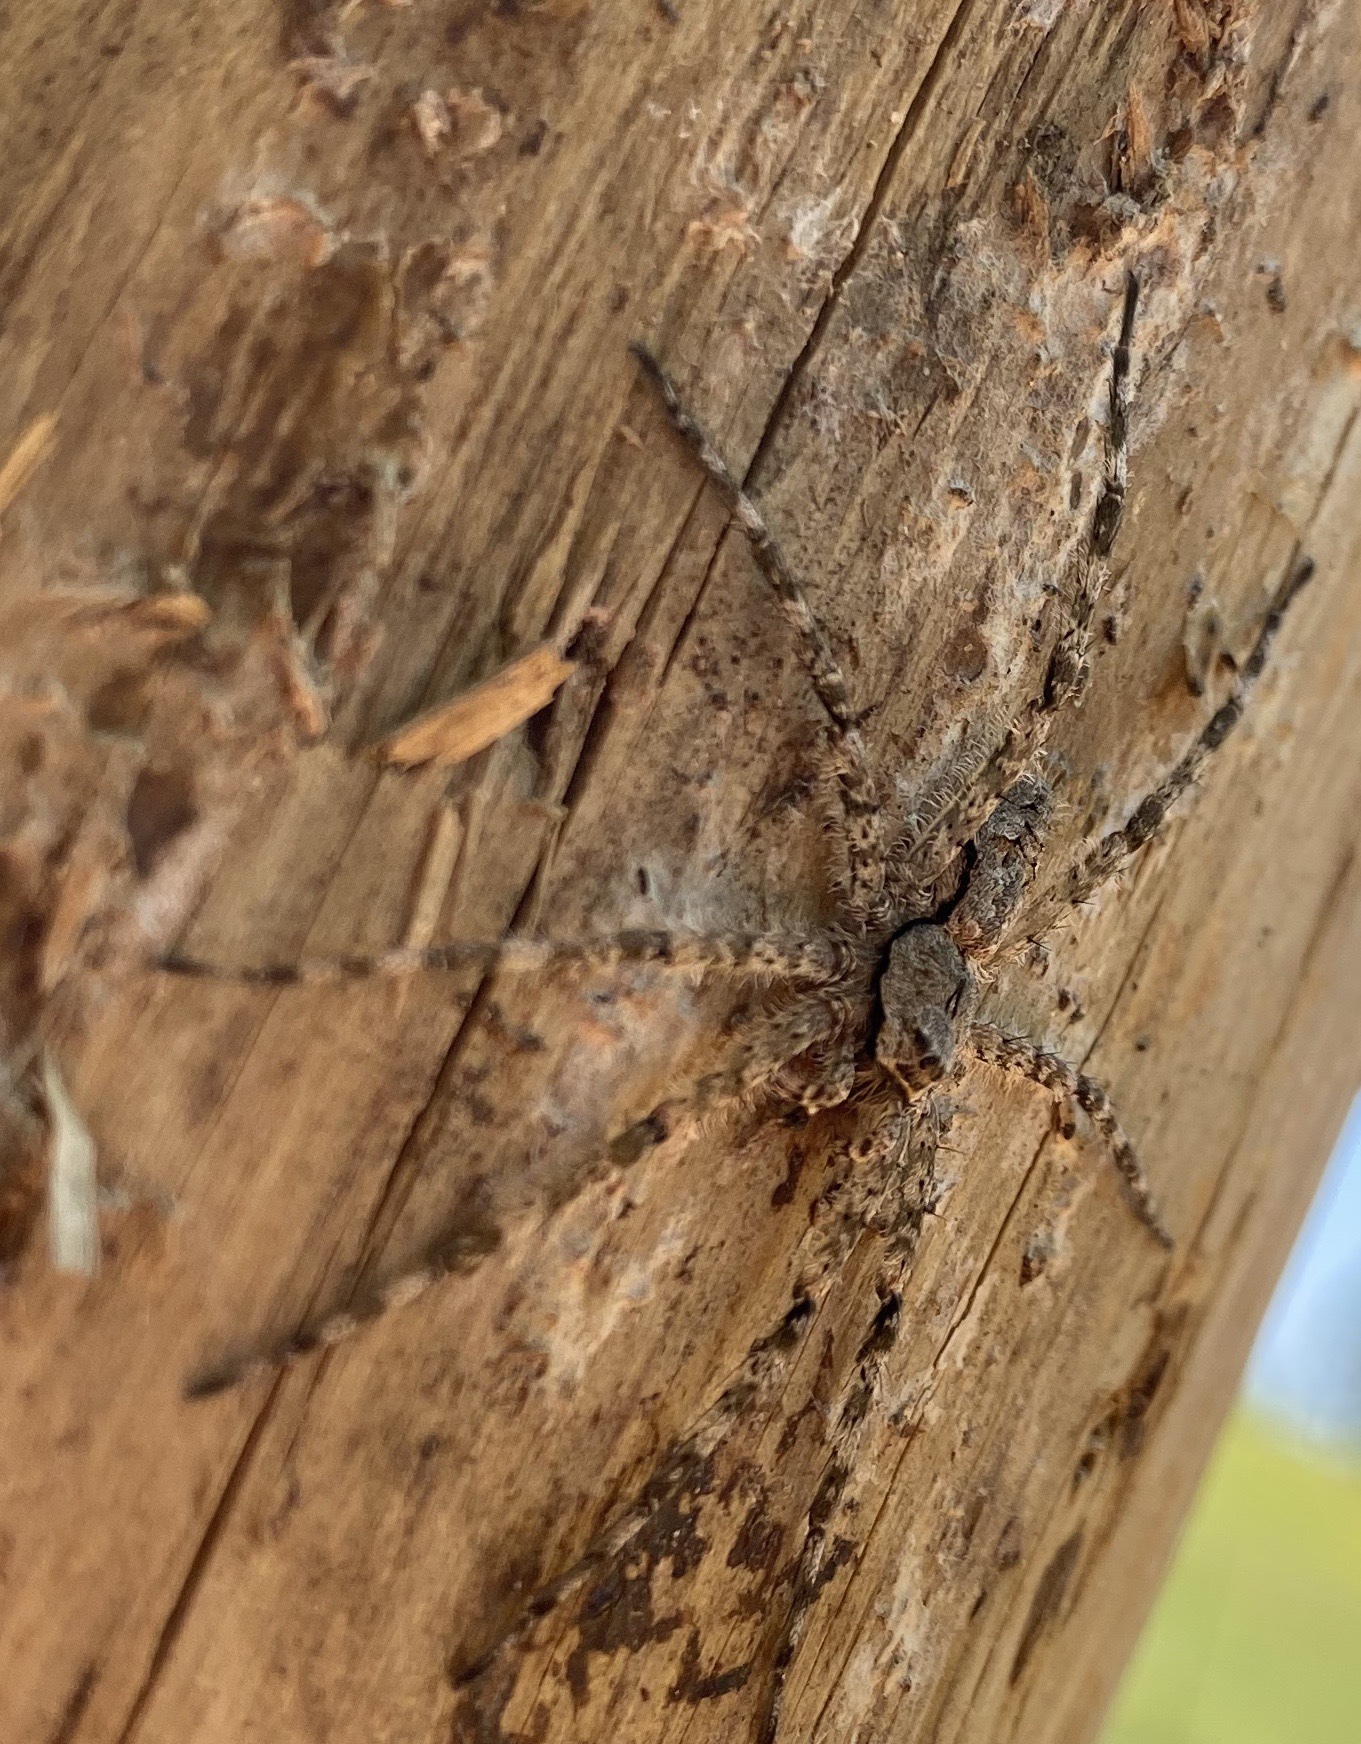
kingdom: Animalia
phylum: Arthropoda
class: Arachnida
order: Araneae
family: Pisauridae
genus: Dolomedes
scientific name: Dolomedes albineus
